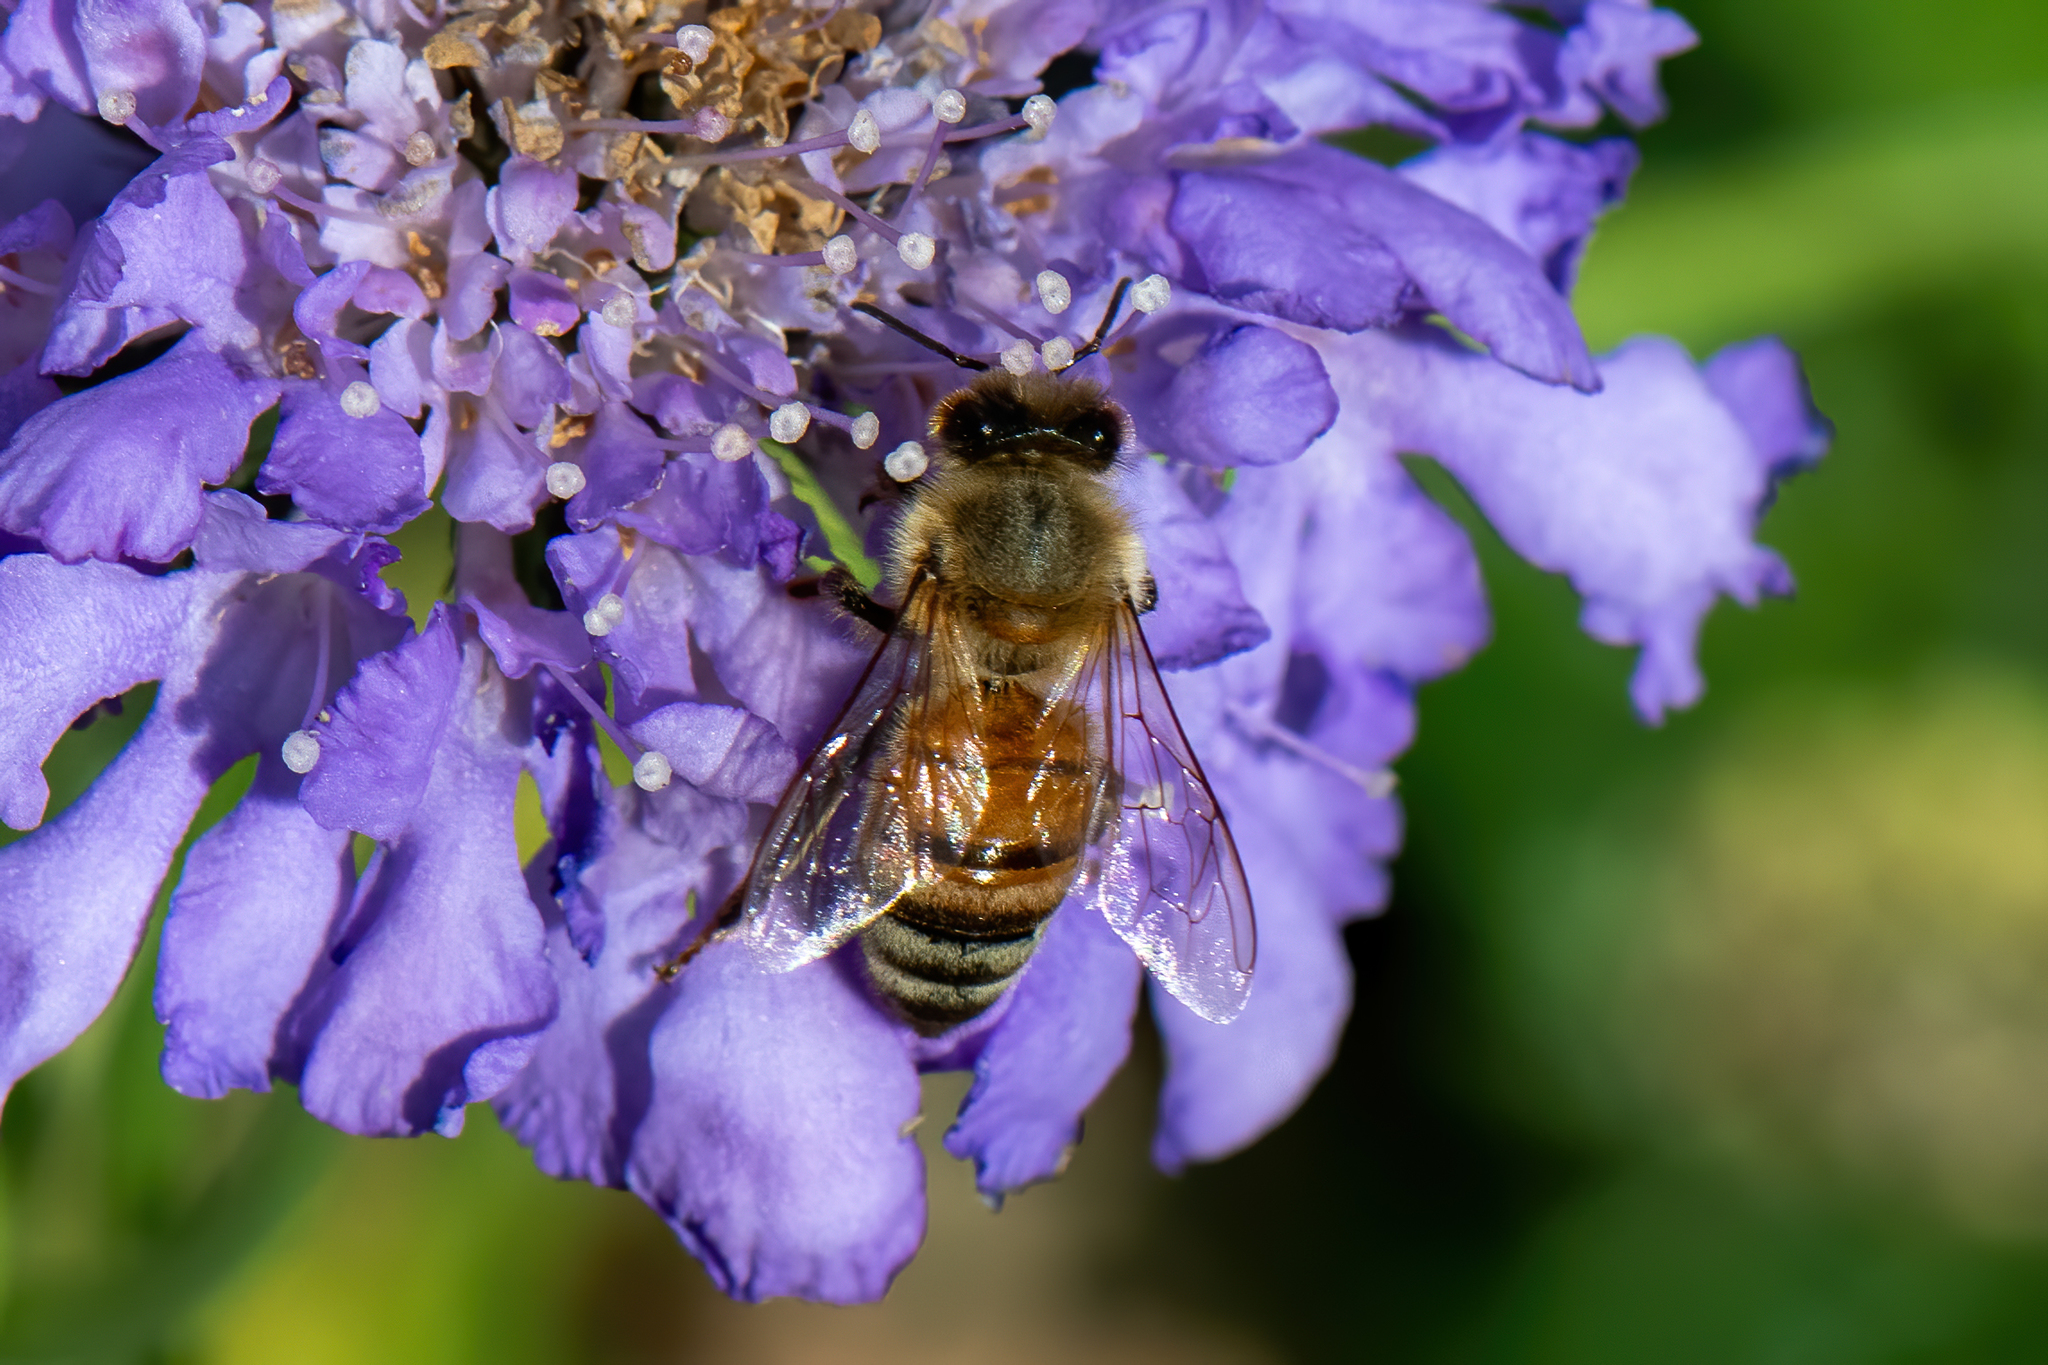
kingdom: Animalia
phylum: Arthropoda
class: Insecta
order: Hymenoptera
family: Apidae
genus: Apis
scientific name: Apis mellifera
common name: Honey bee
